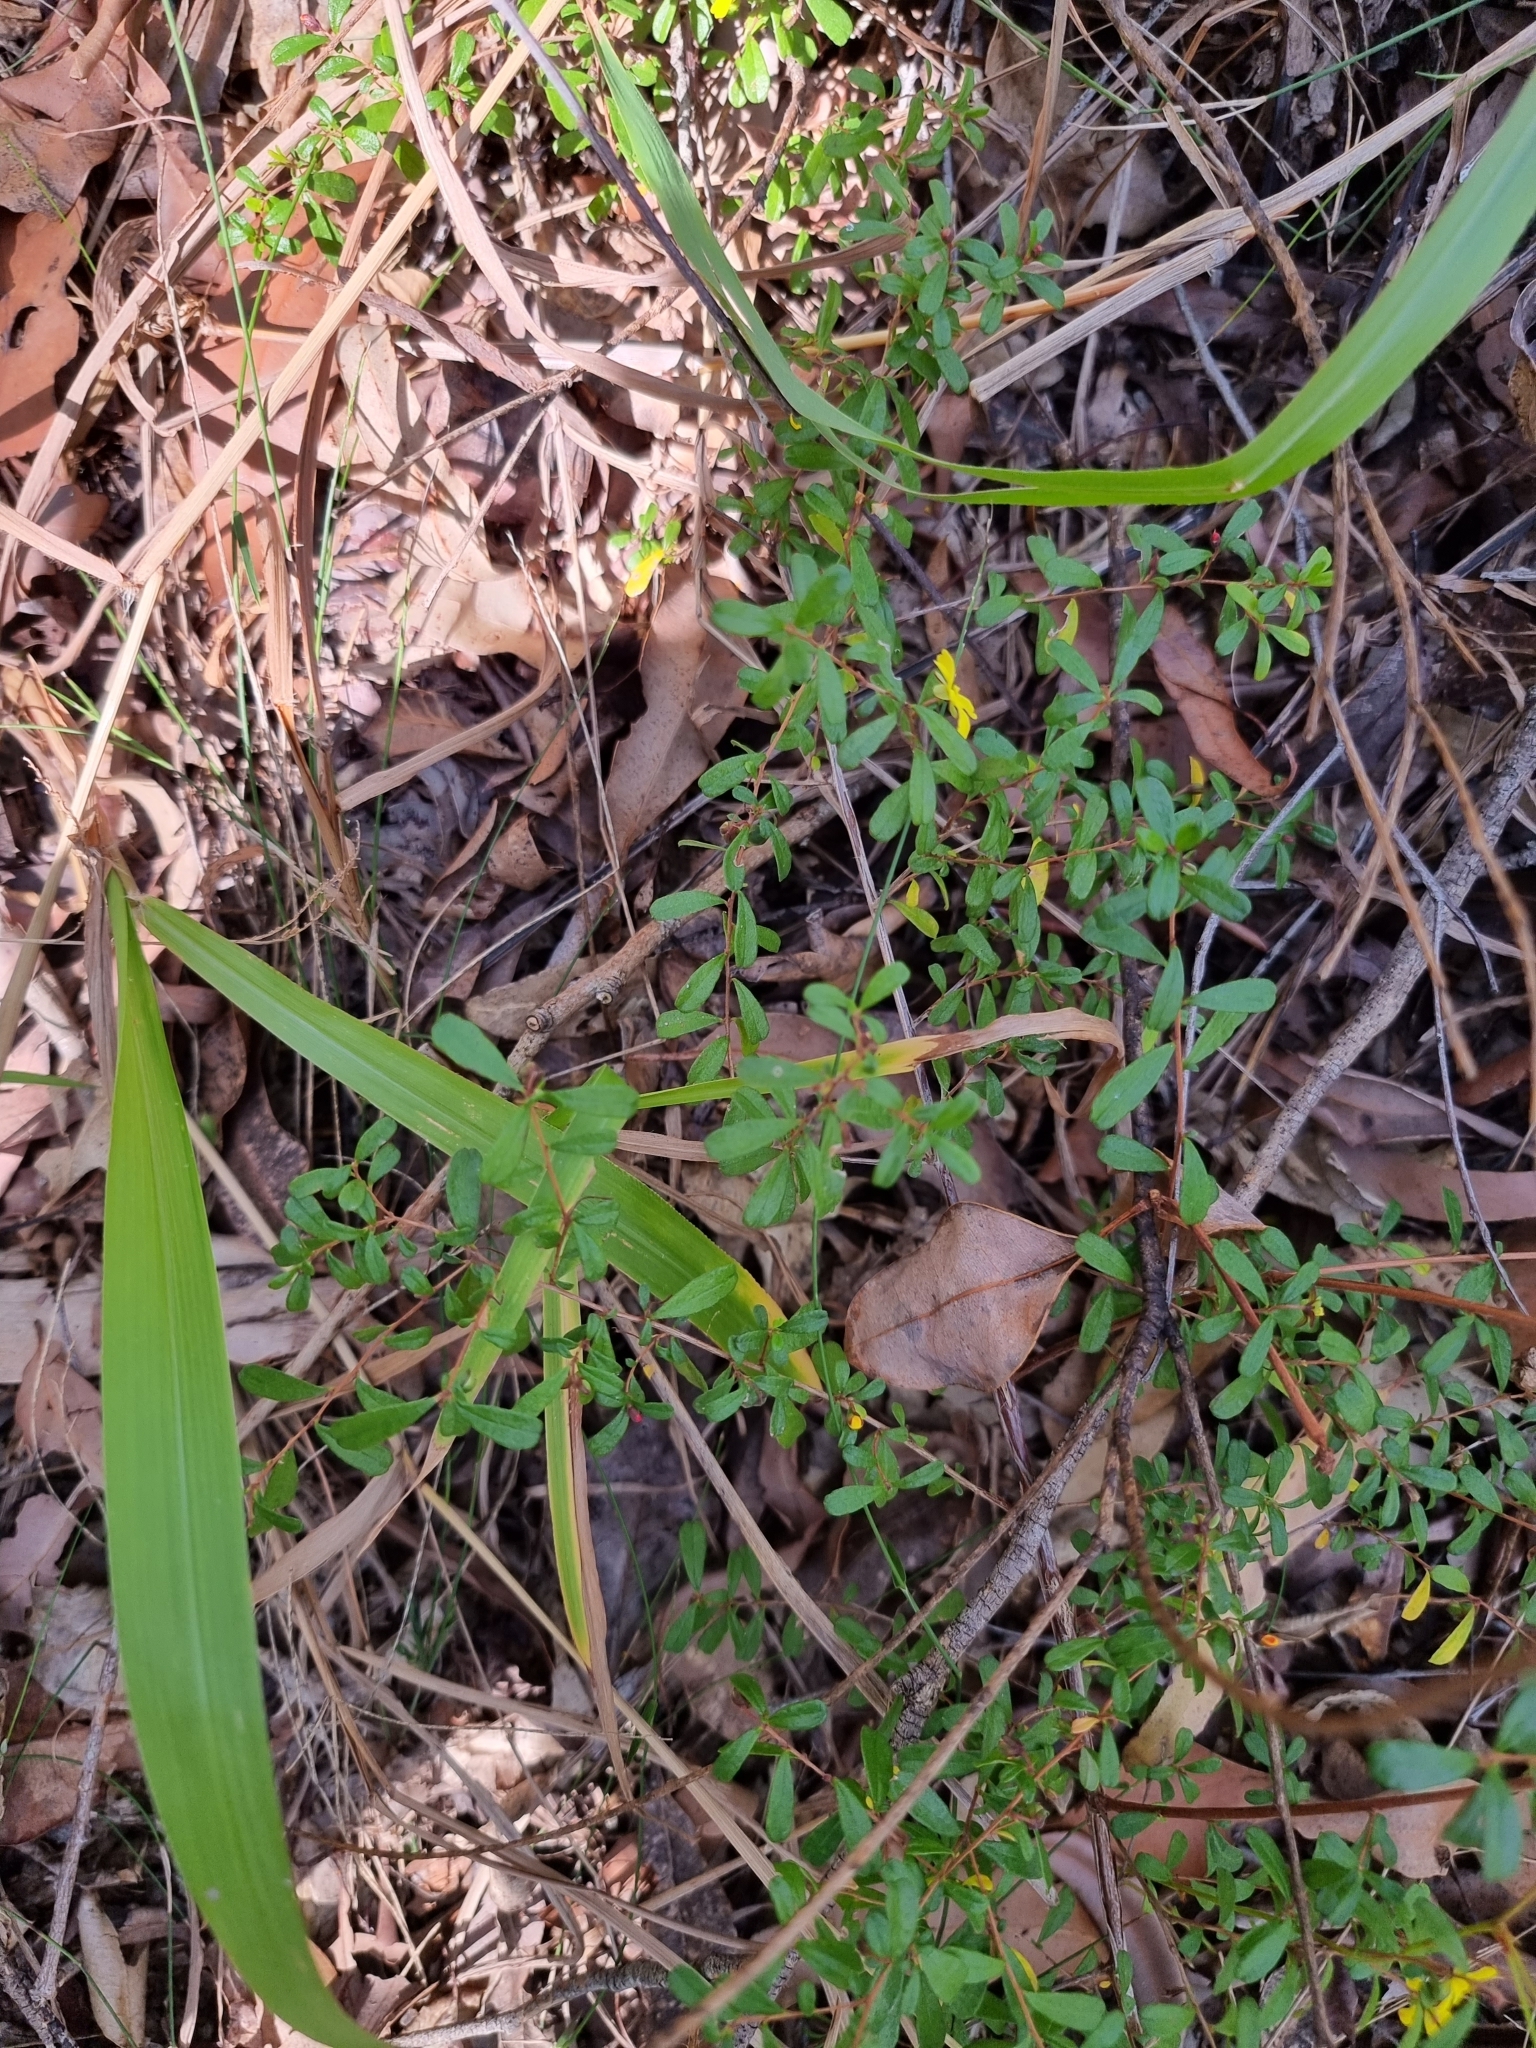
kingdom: Plantae
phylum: Tracheophyta
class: Magnoliopsida
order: Dilleniales
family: Dilleniaceae
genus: Hibbertia
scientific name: Hibbertia aspera
